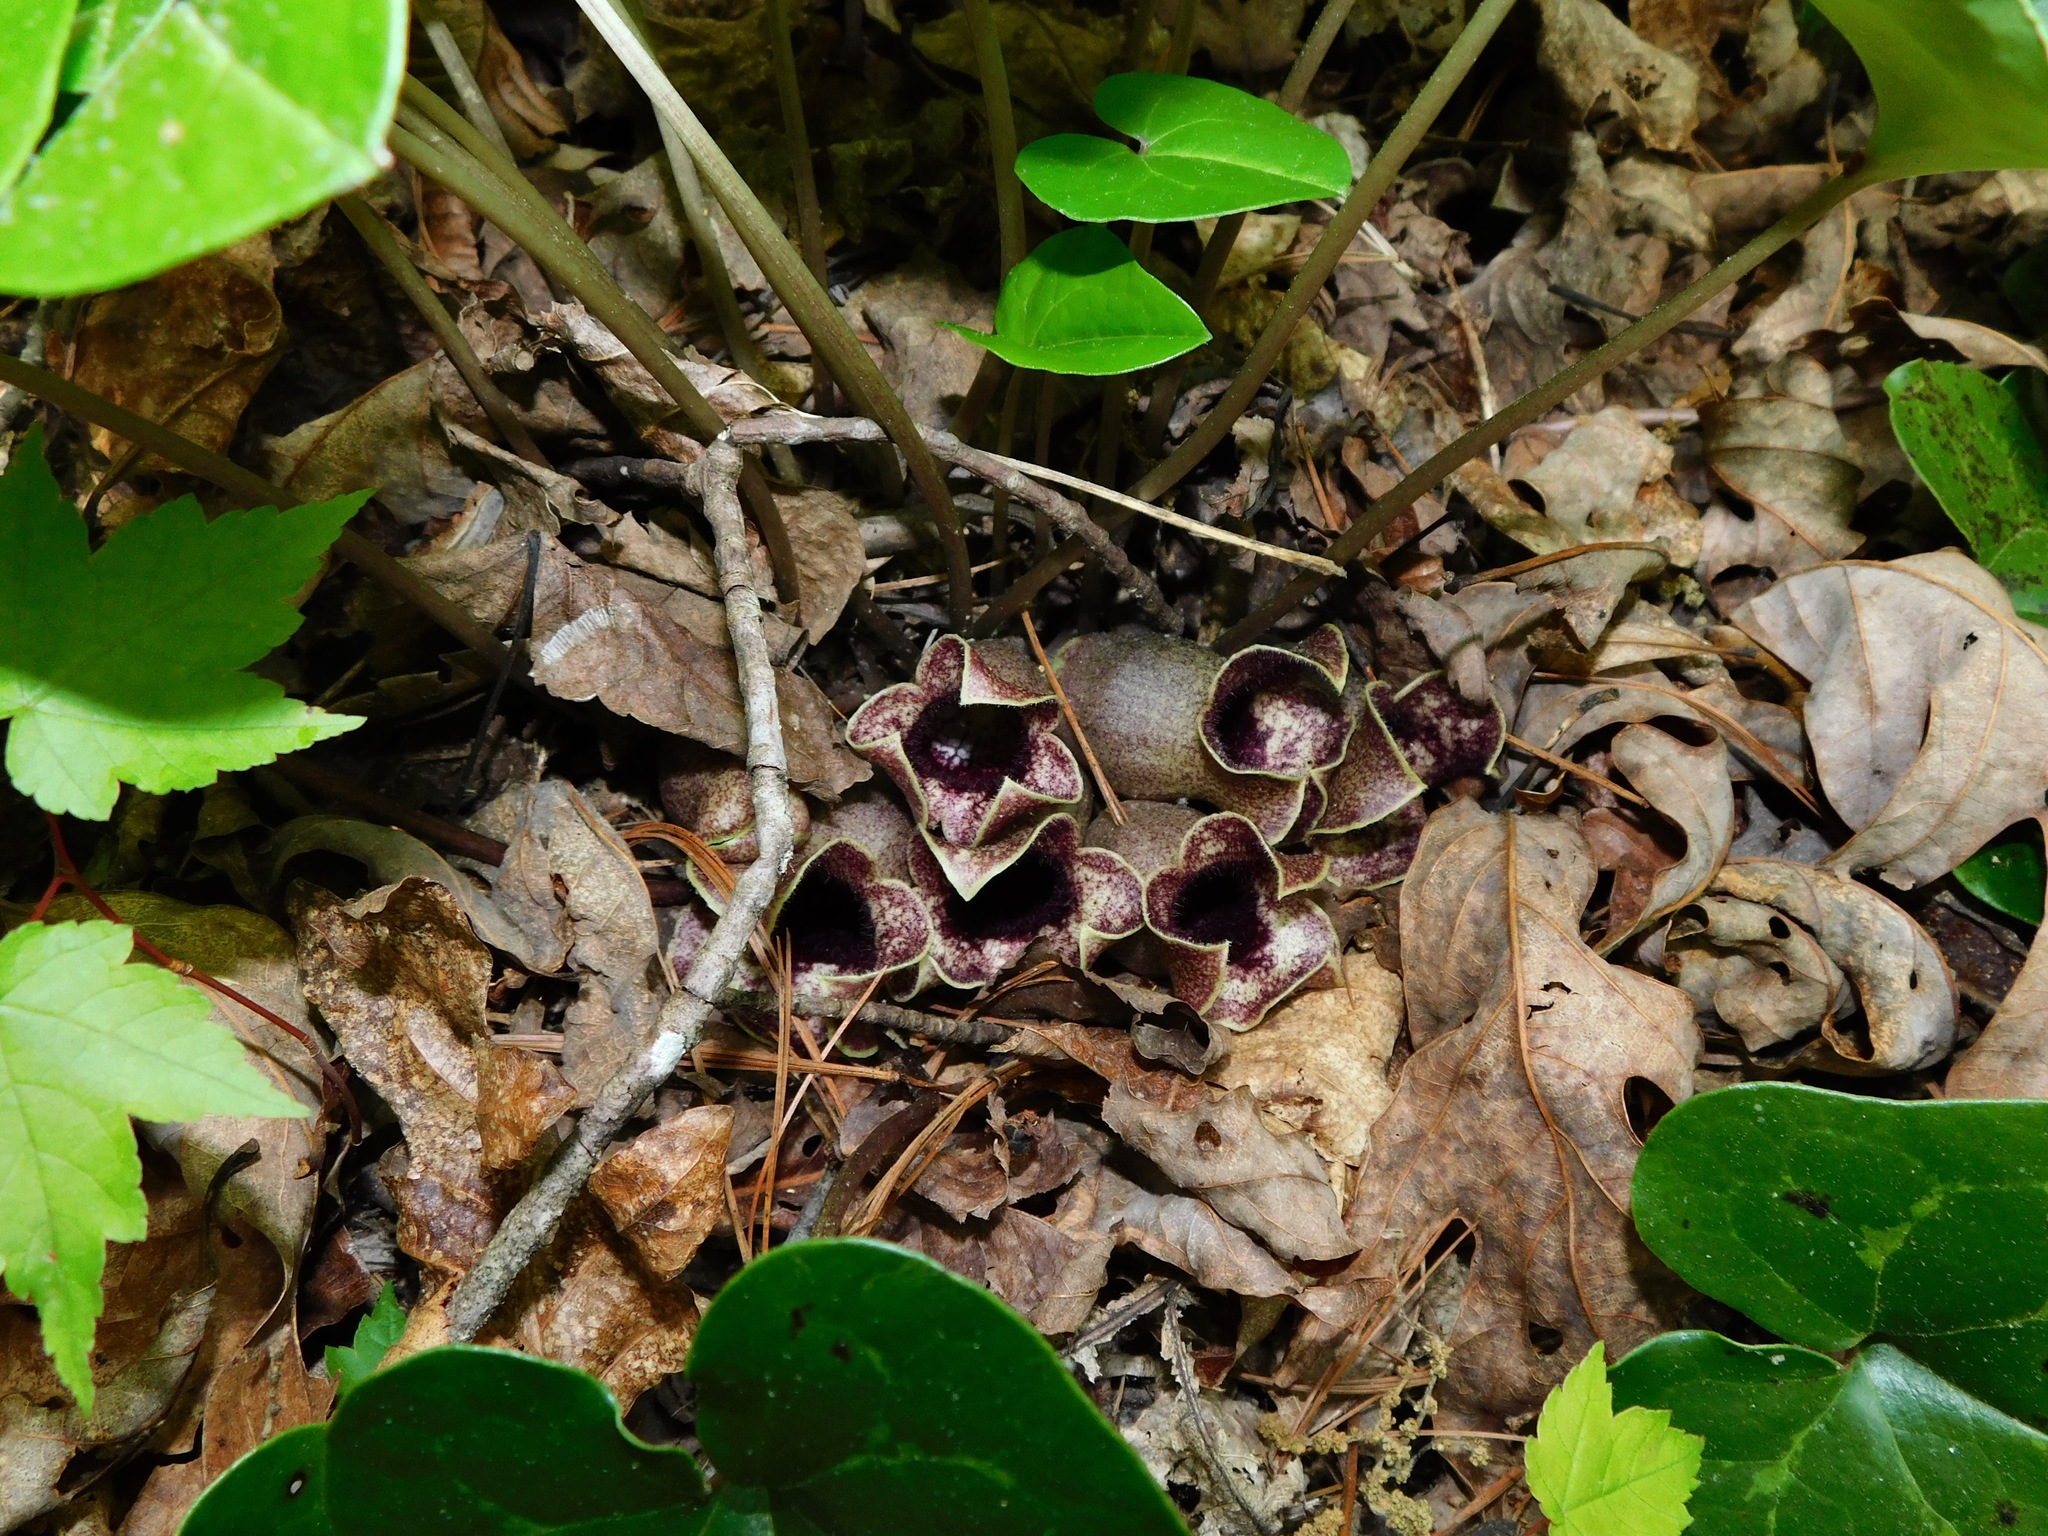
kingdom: Plantae
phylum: Tracheophyta
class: Magnoliopsida
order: Piperales
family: Aristolochiaceae
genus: Hexastylis
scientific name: Hexastylis shuttleworthii
